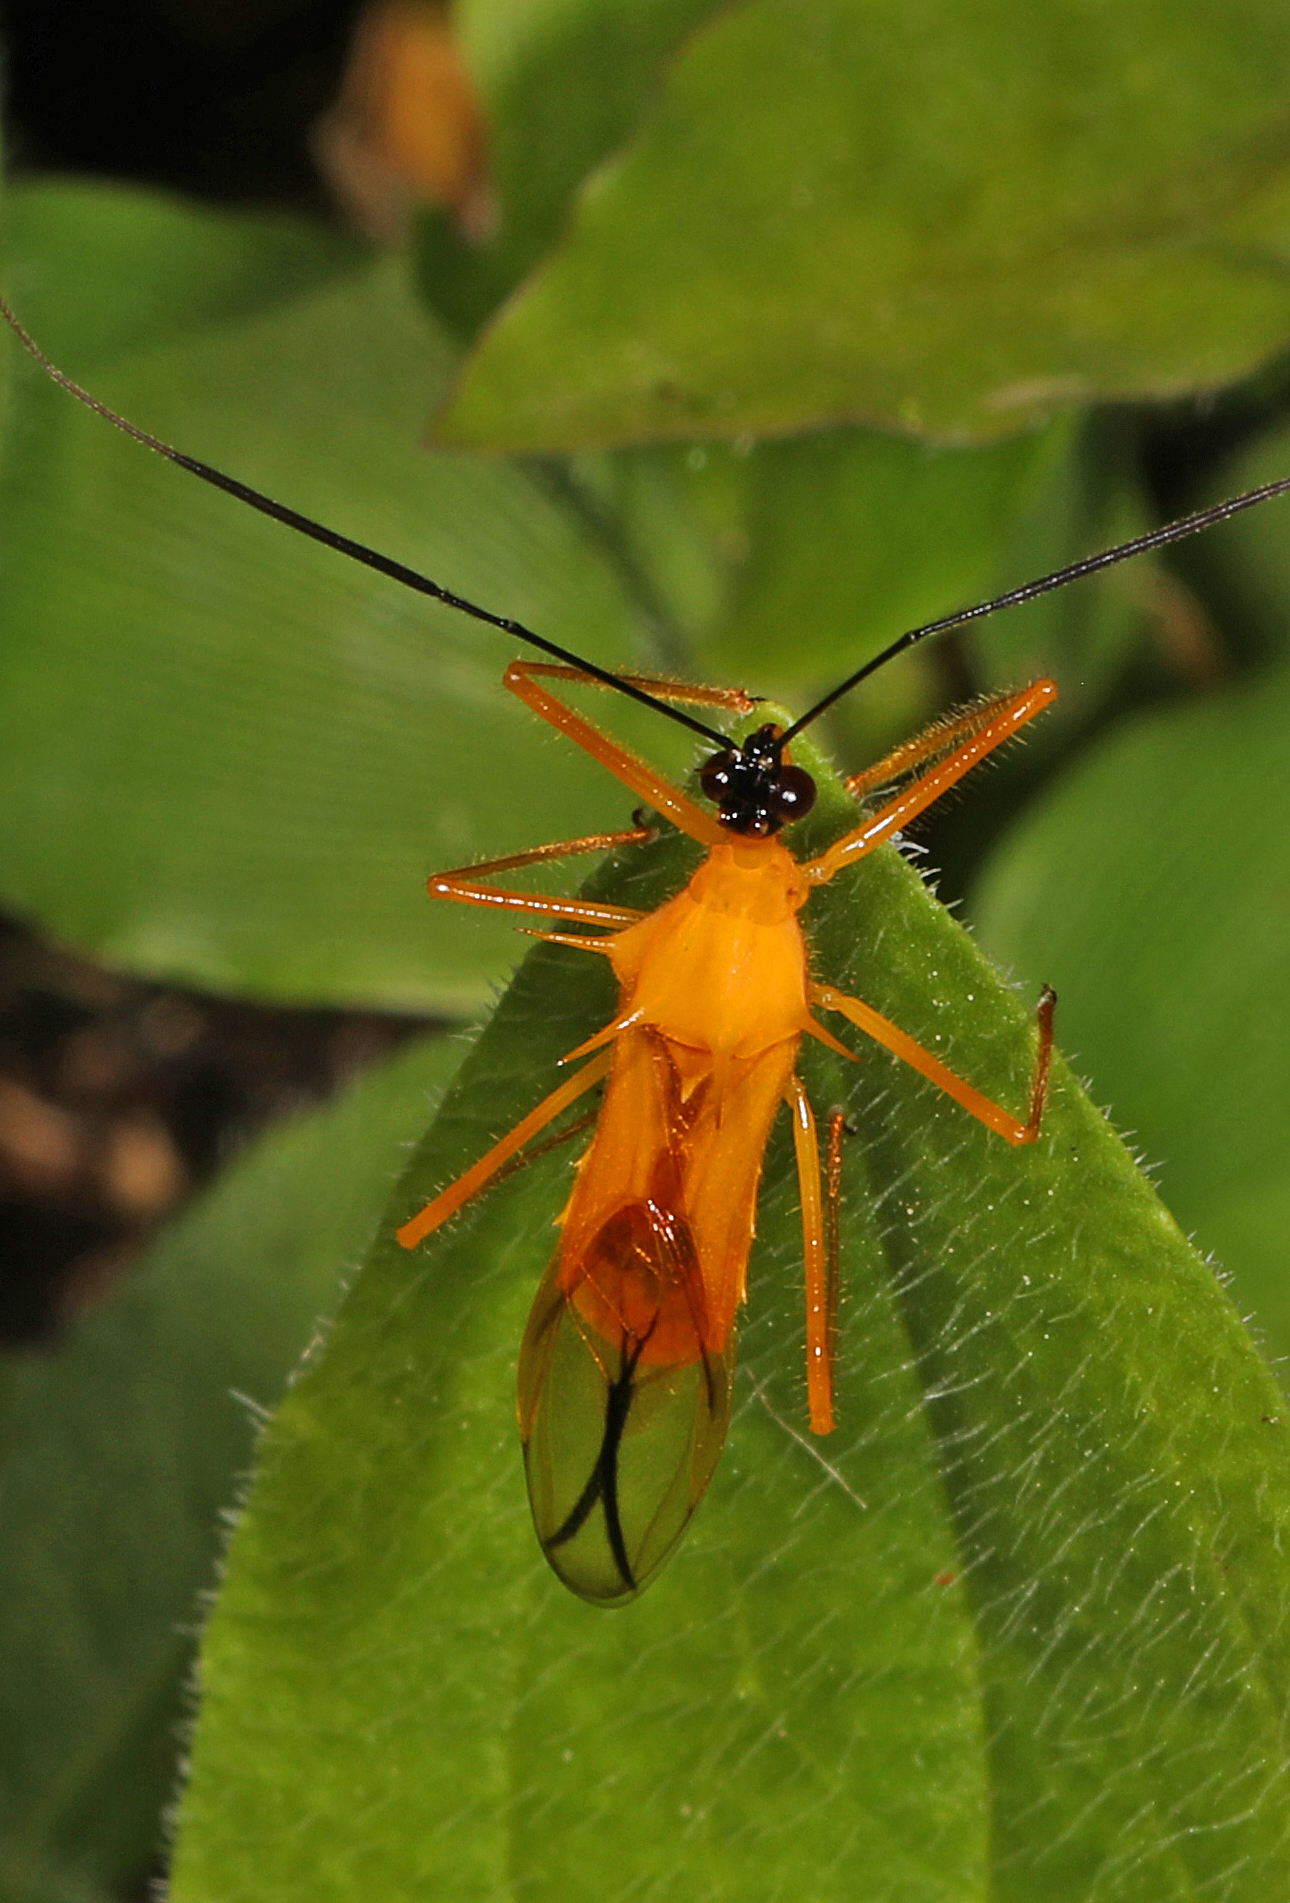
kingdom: Animalia
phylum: Arthropoda
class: Insecta
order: Hemiptera
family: Reduviidae
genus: Corcia
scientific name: Corcia columbica
